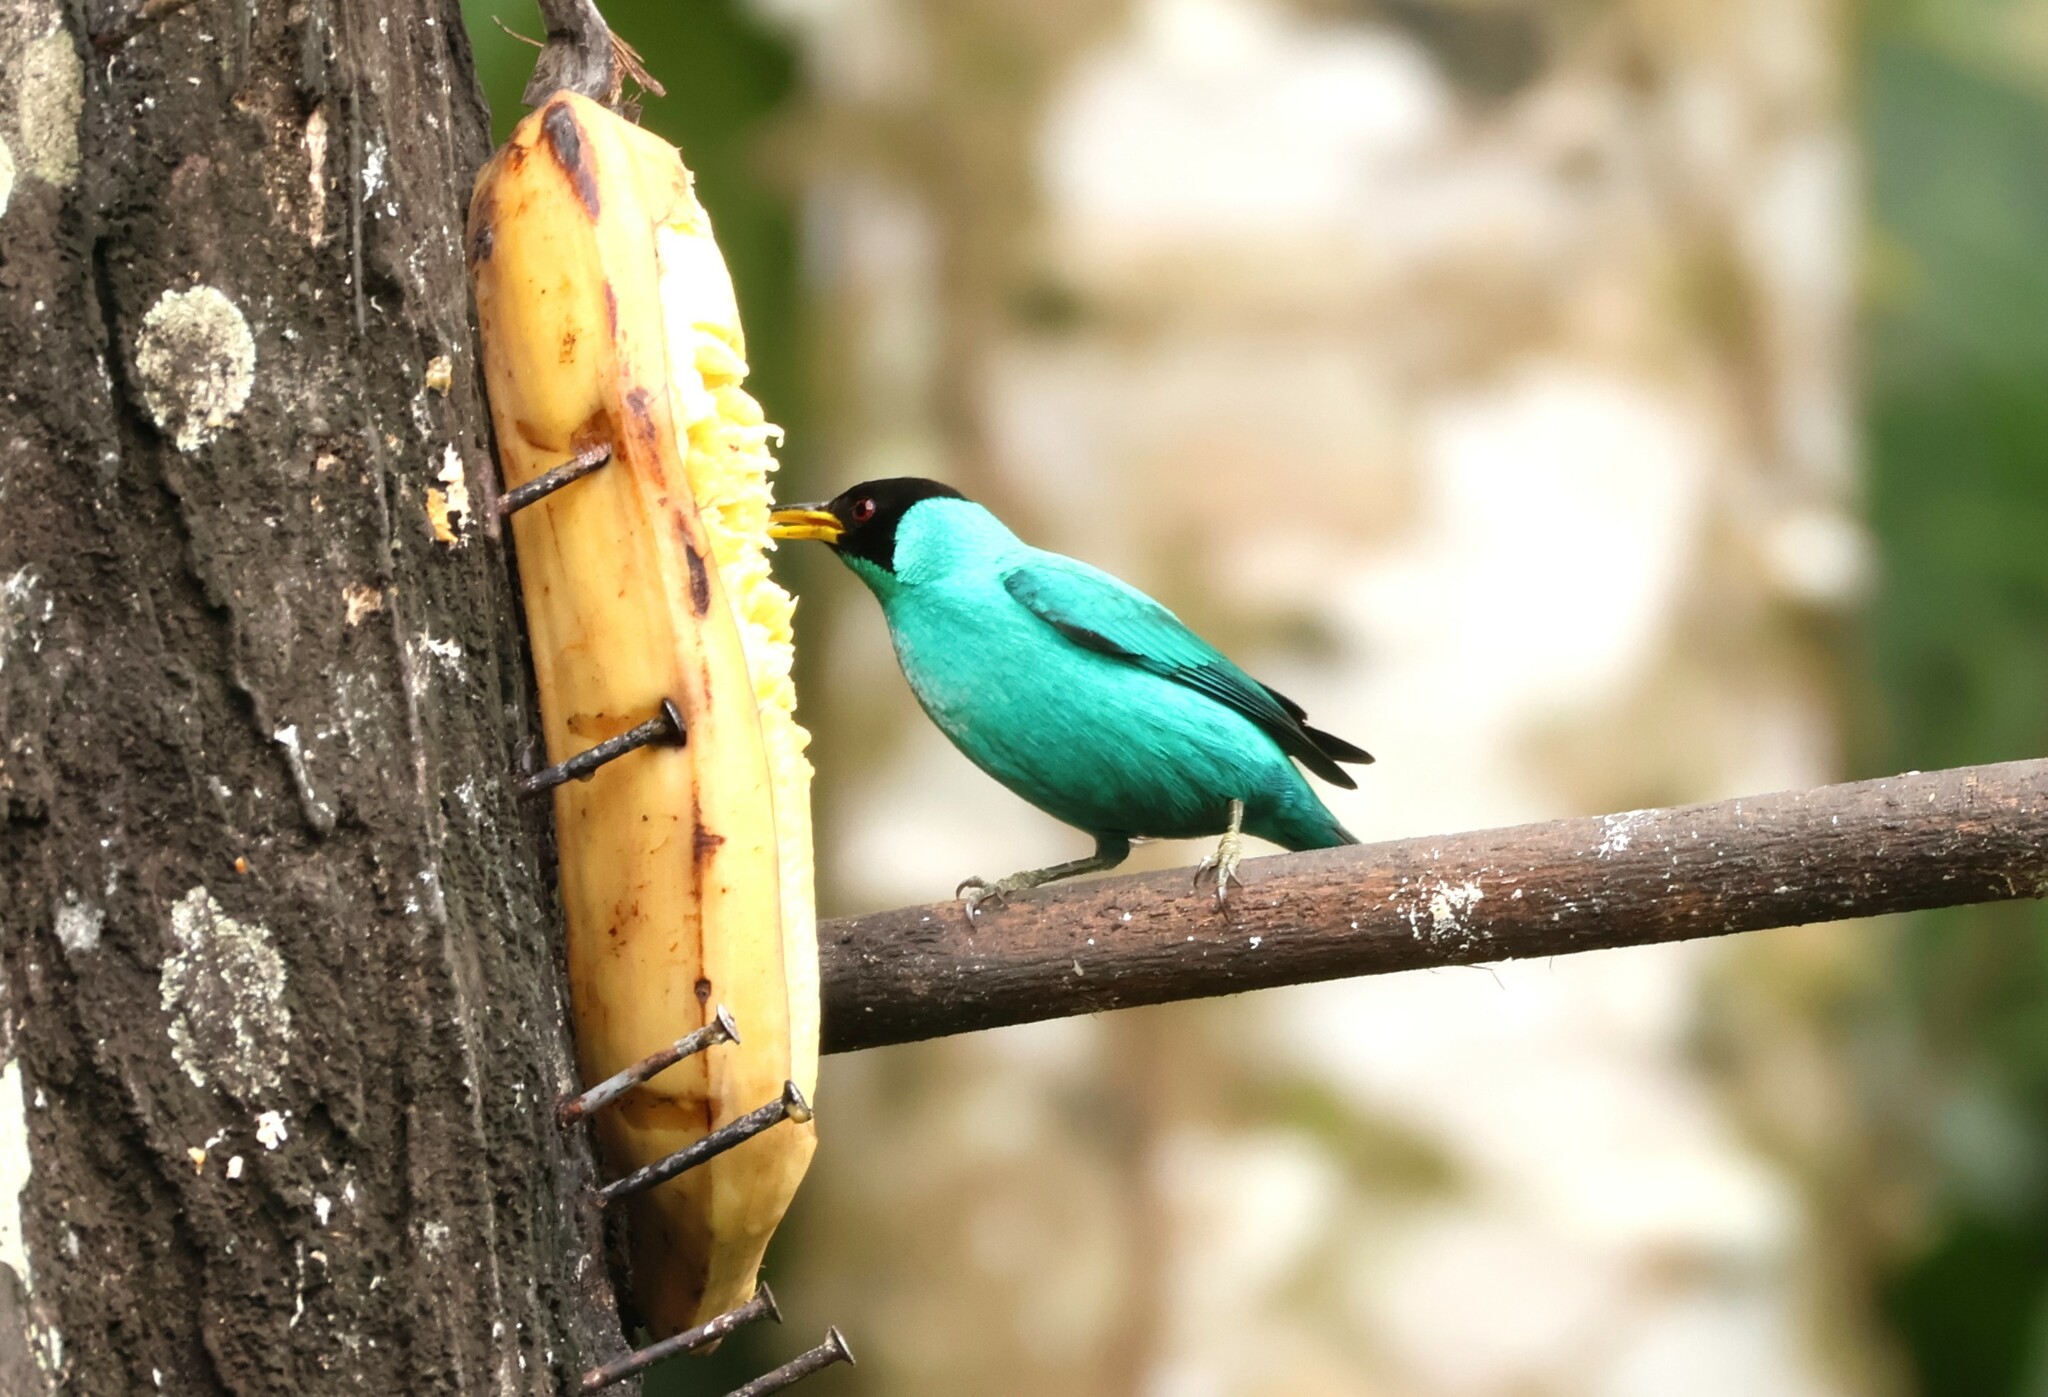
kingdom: Animalia
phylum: Chordata
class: Aves
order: Passeriformes
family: Thraupidae
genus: Chlorophanes
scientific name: Chlorophanes spiza
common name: Green honeycreeper
